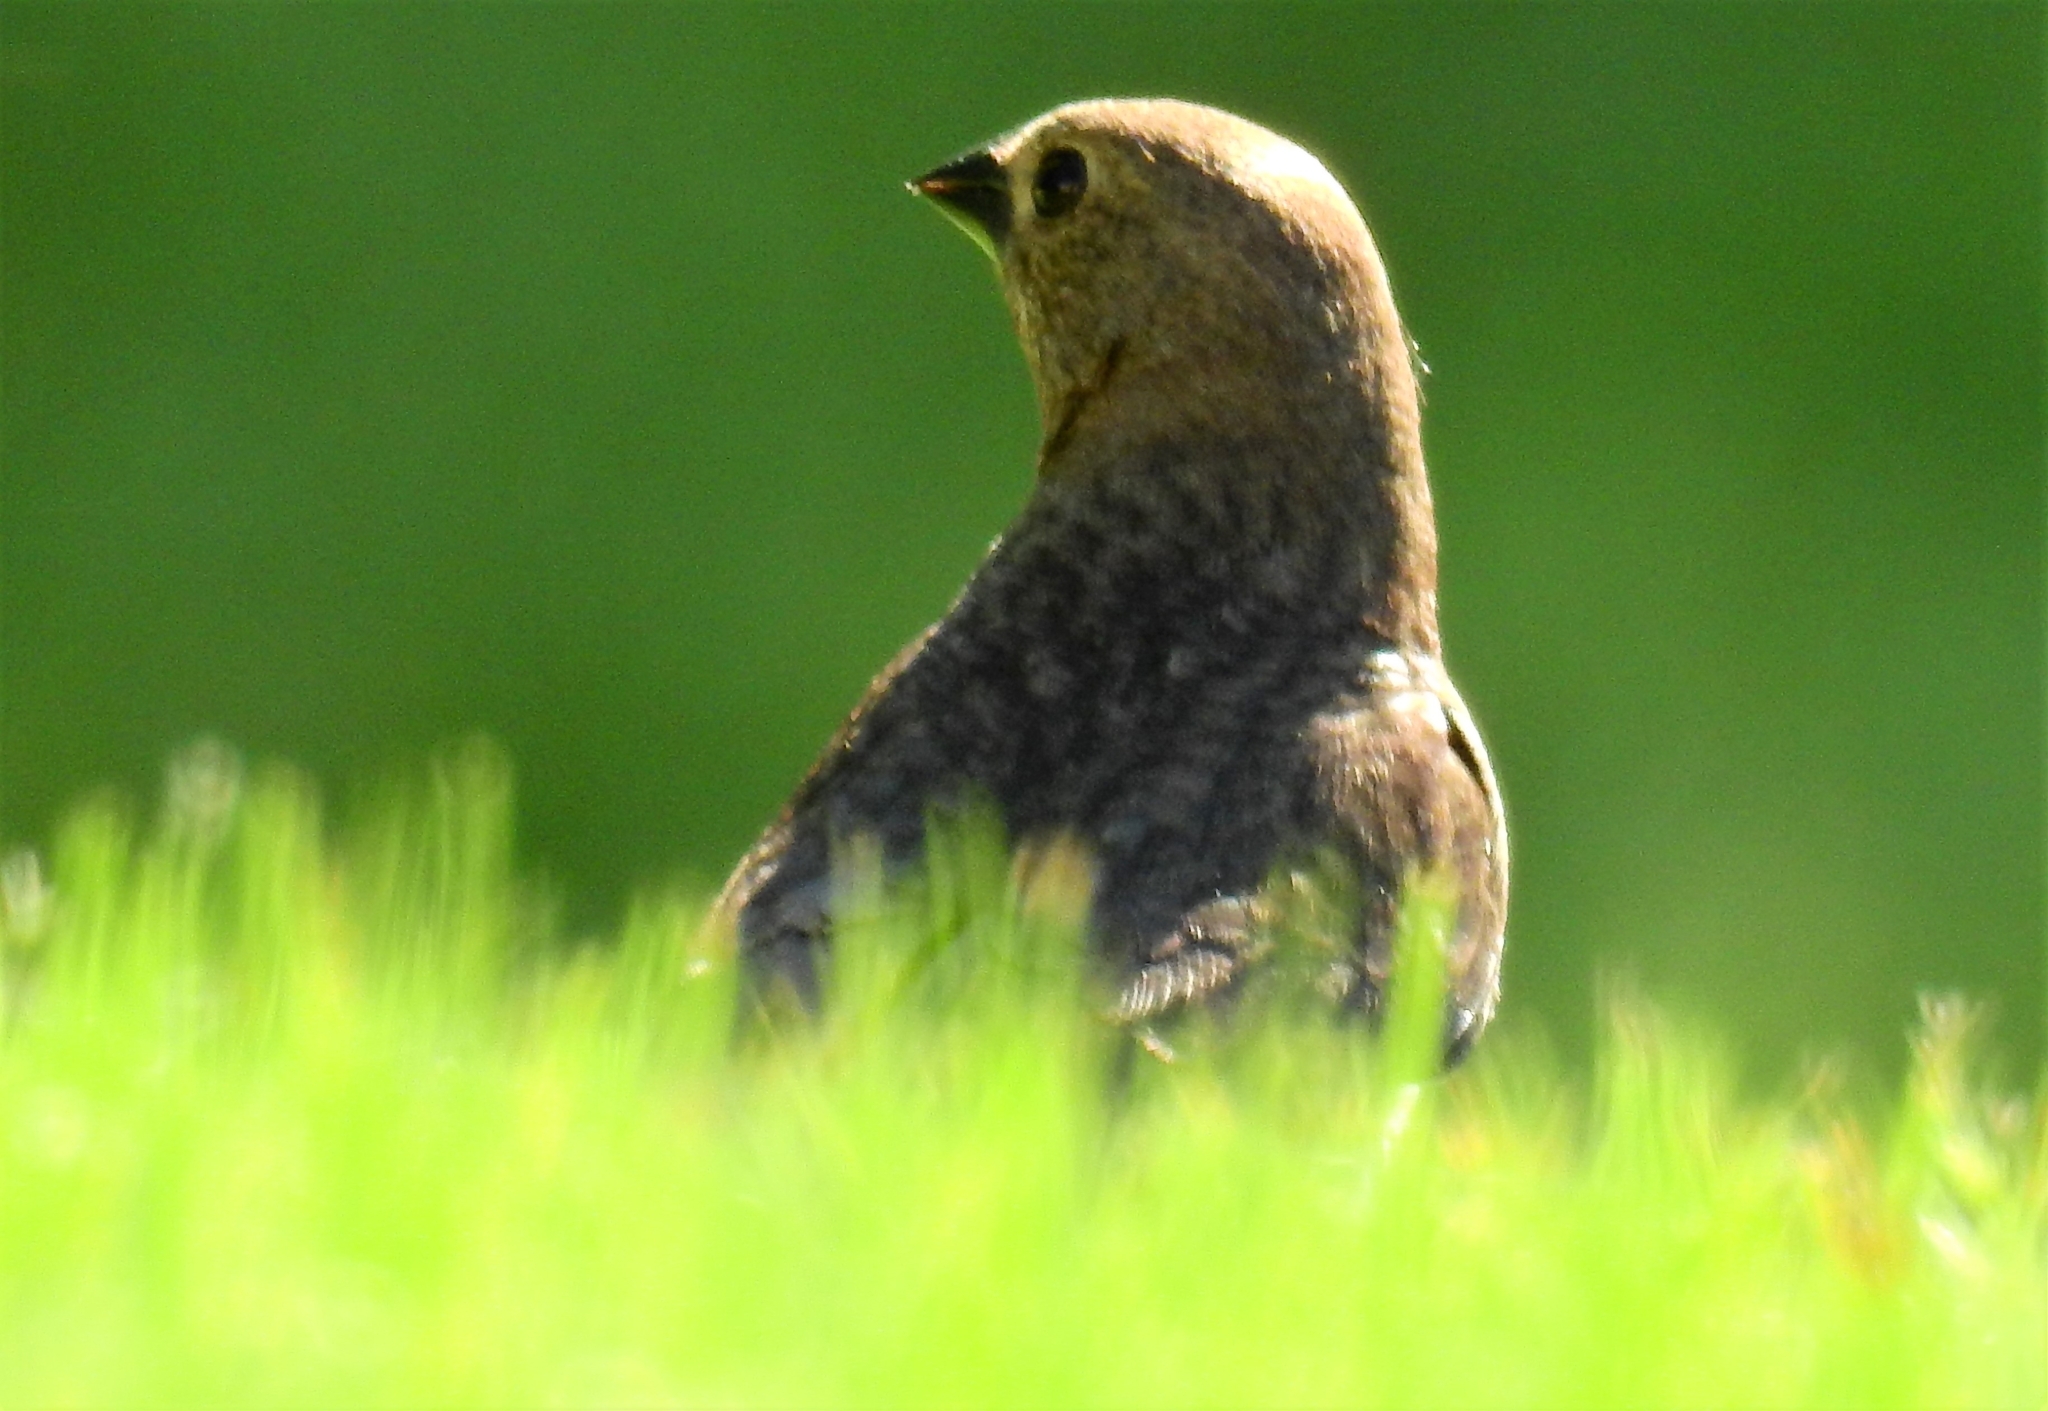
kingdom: Animalia
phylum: Chordata
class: Aves
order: Passeriformes
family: Icteridae
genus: Molothrus
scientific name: Molothrus ater
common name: Brown-headed cowbird
